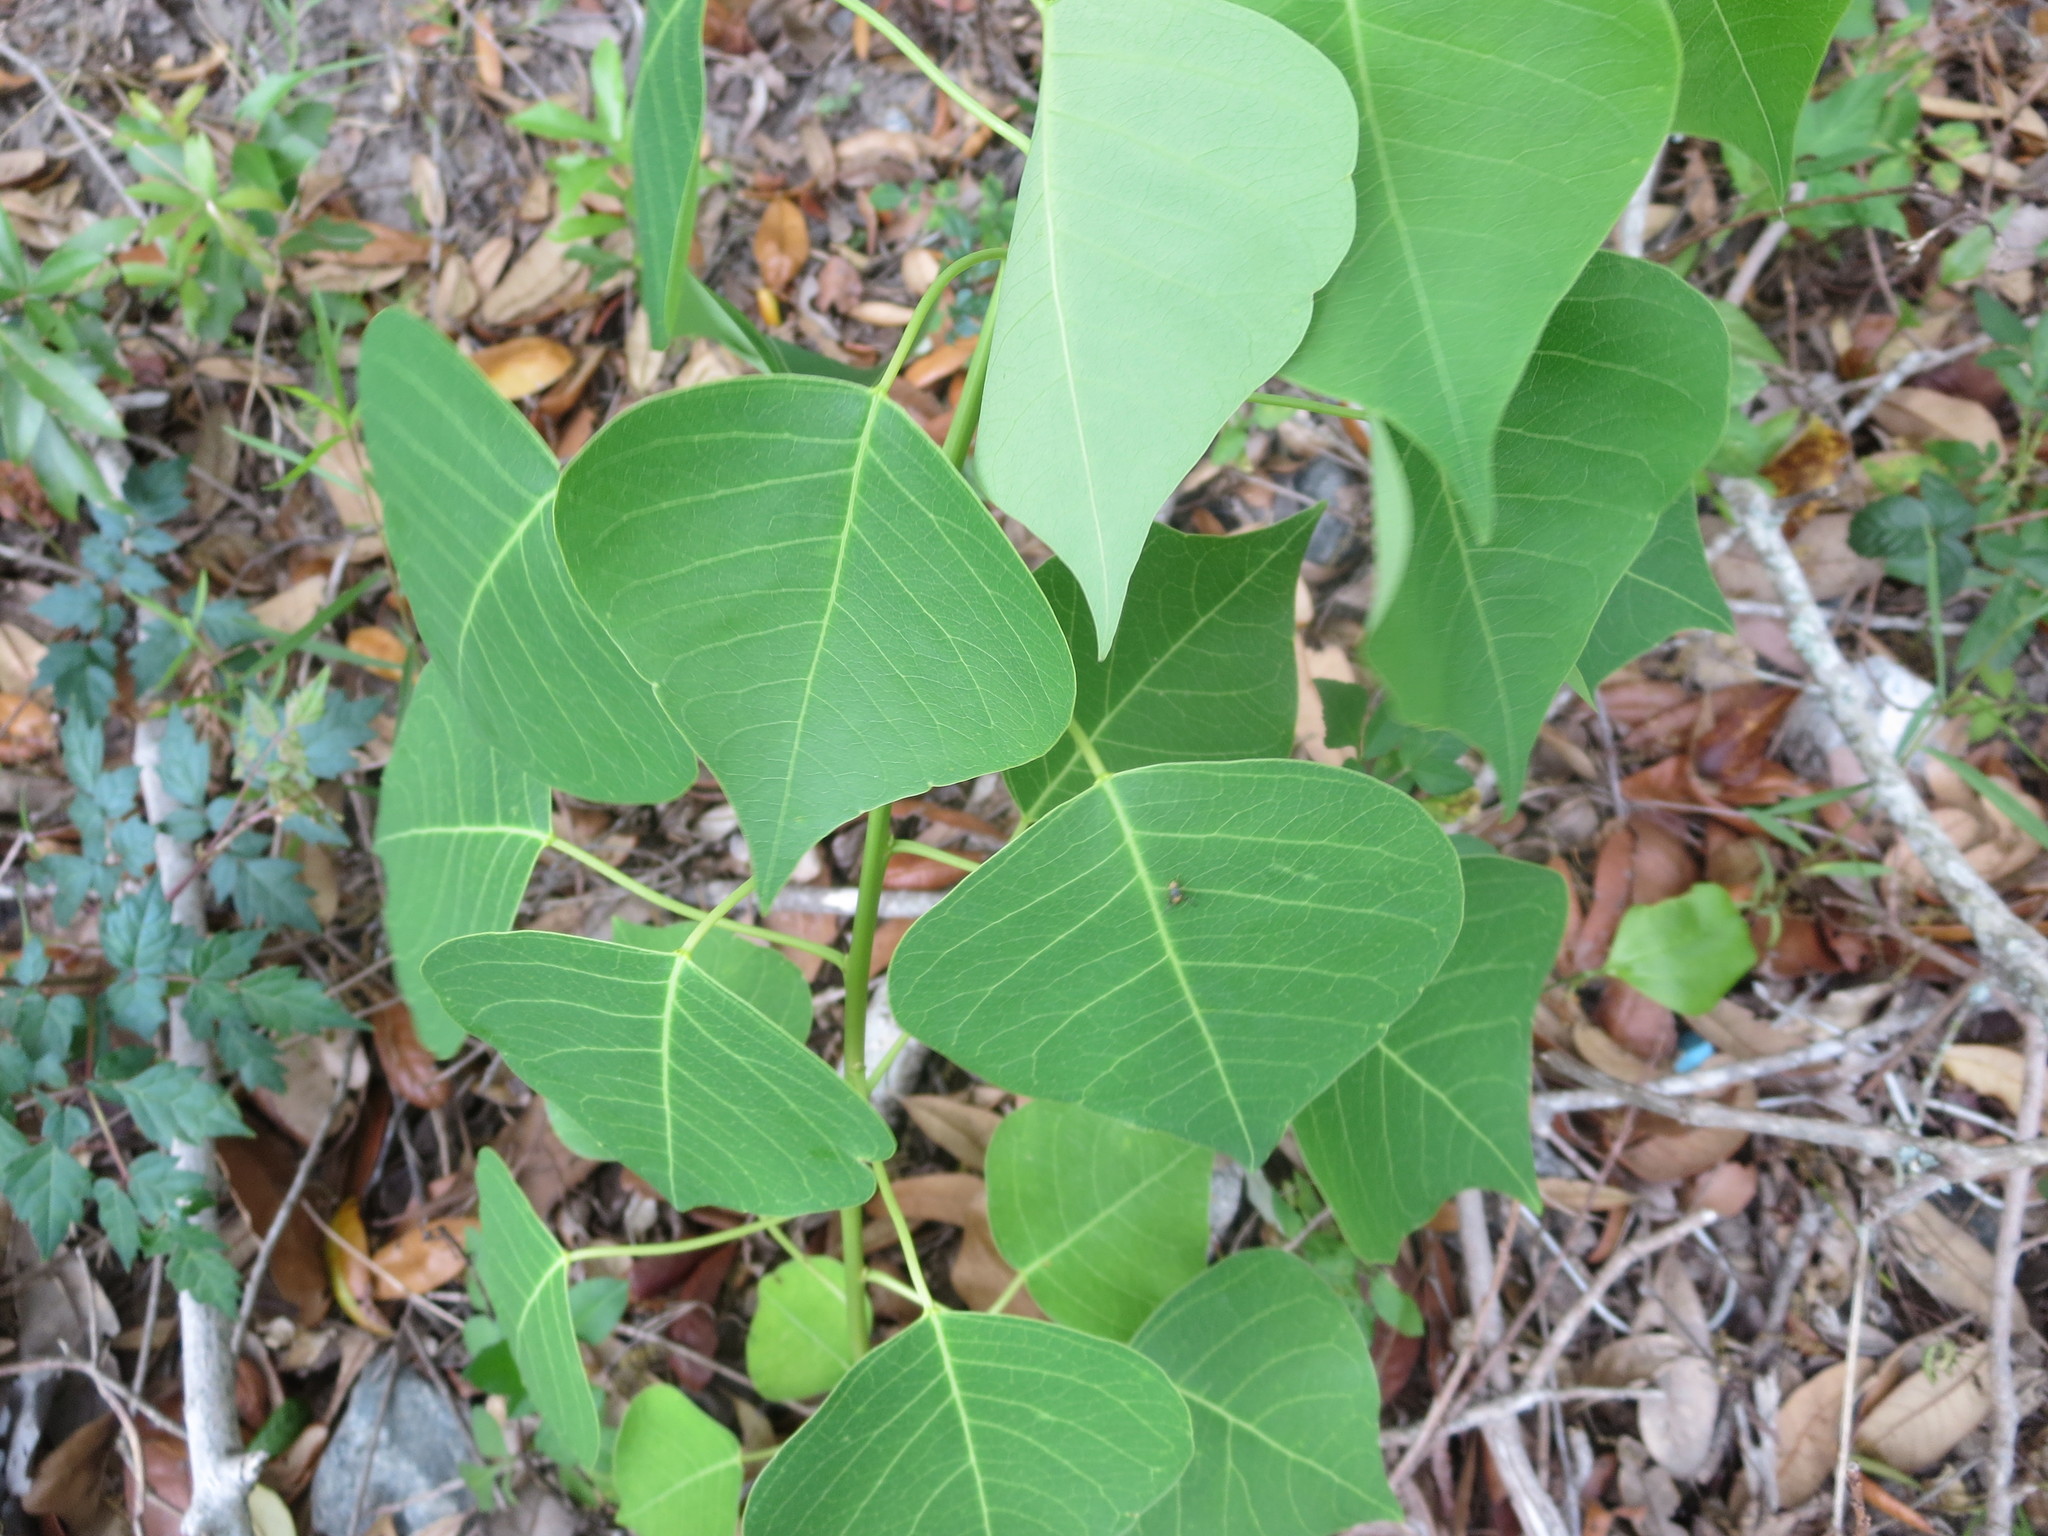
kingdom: Plantae
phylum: Tracheophyta
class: Magnoliopsida
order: Malpighiales
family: Euphorbiaceae
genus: Triadica
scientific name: Triadica sebifera
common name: Chinese tallow
